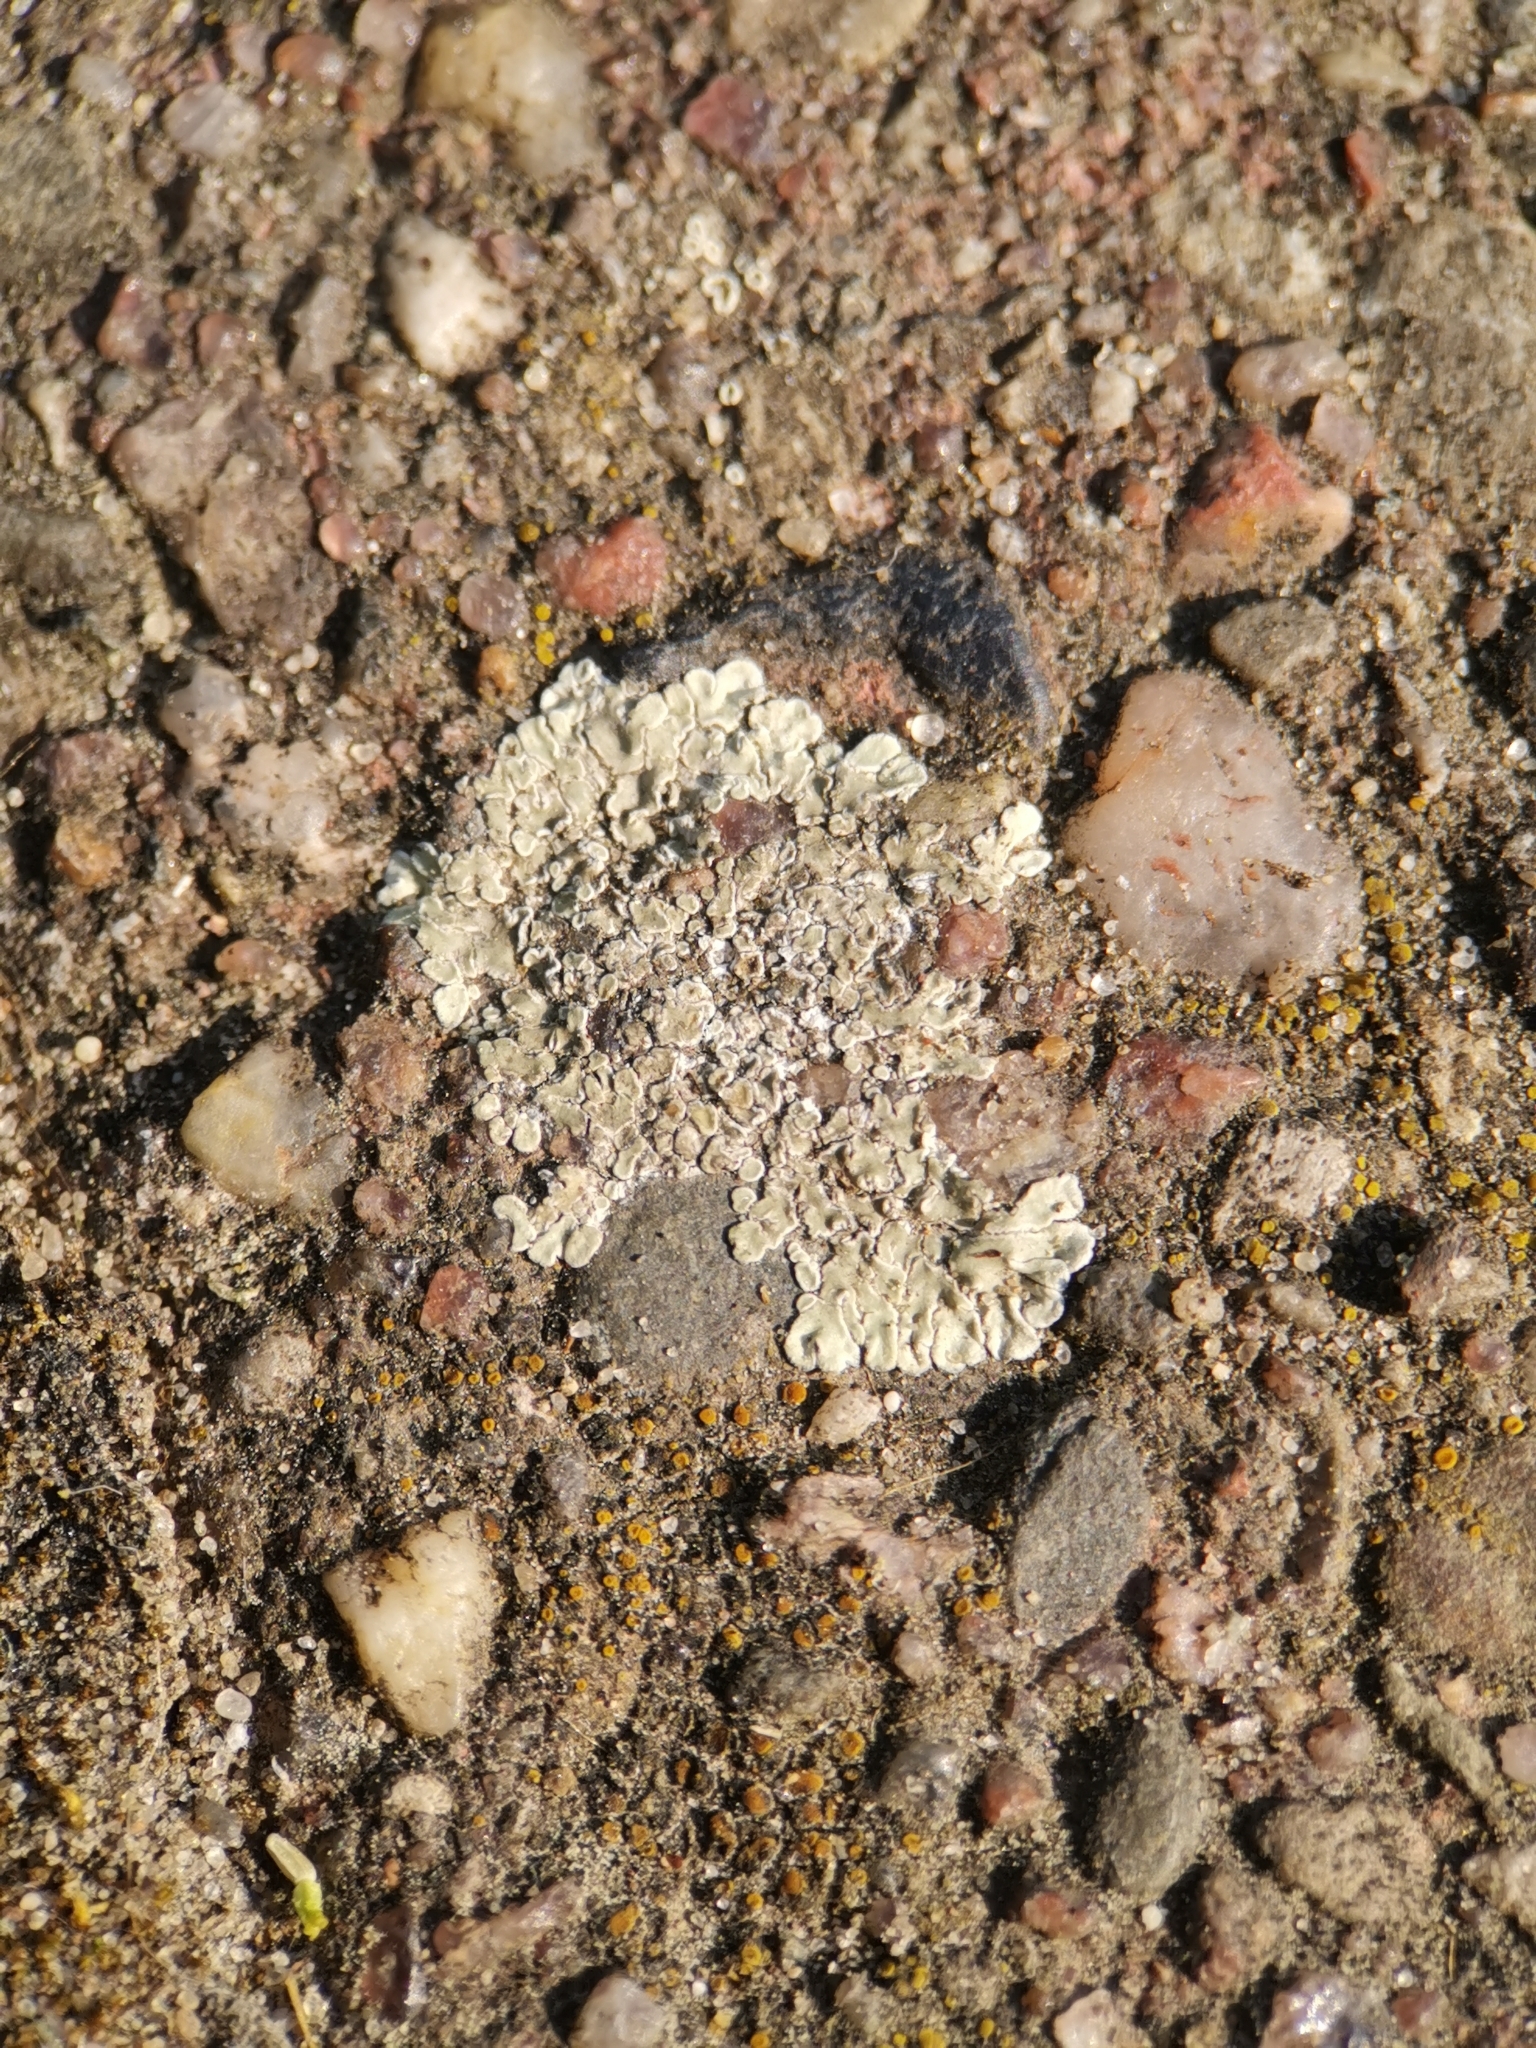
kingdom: Fungi
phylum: Ascomycota
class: Lecanoromycetes
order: Lecanorales
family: Lecanoraceae
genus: Protoparmeliopsis
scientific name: Protoparmeliopsis muralis
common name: Stonewall rim lichen
